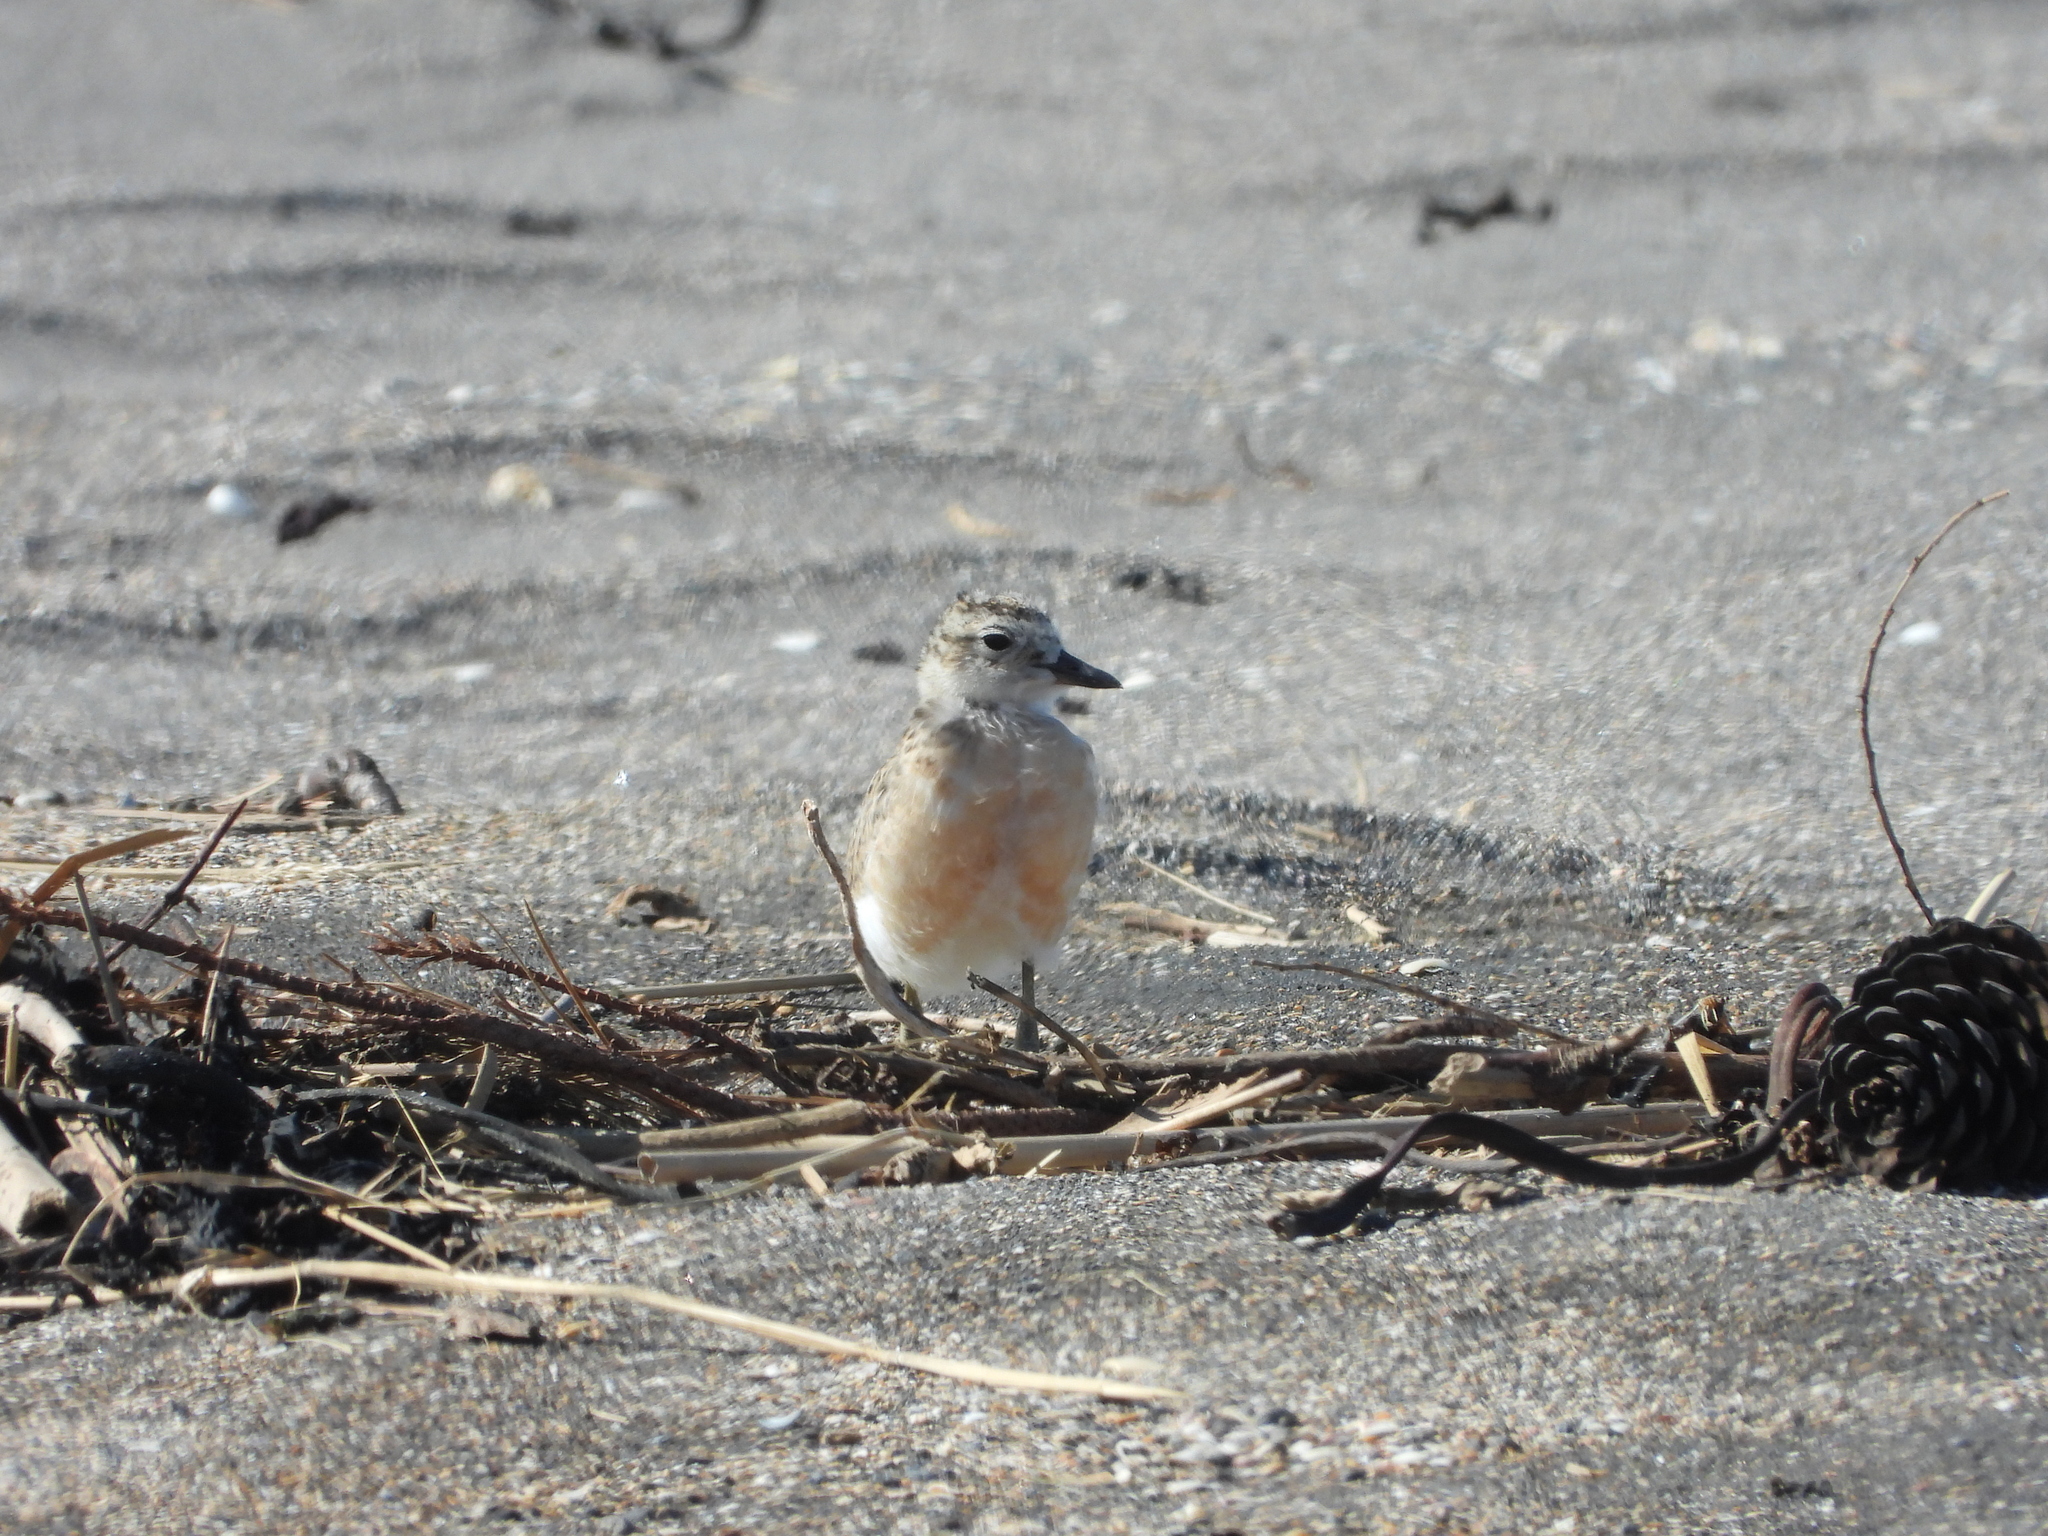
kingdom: Animalia
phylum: Chordata
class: Aves
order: Charadriiformes
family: Charadriidae
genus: Anarhynchus
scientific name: Anarhynchus
